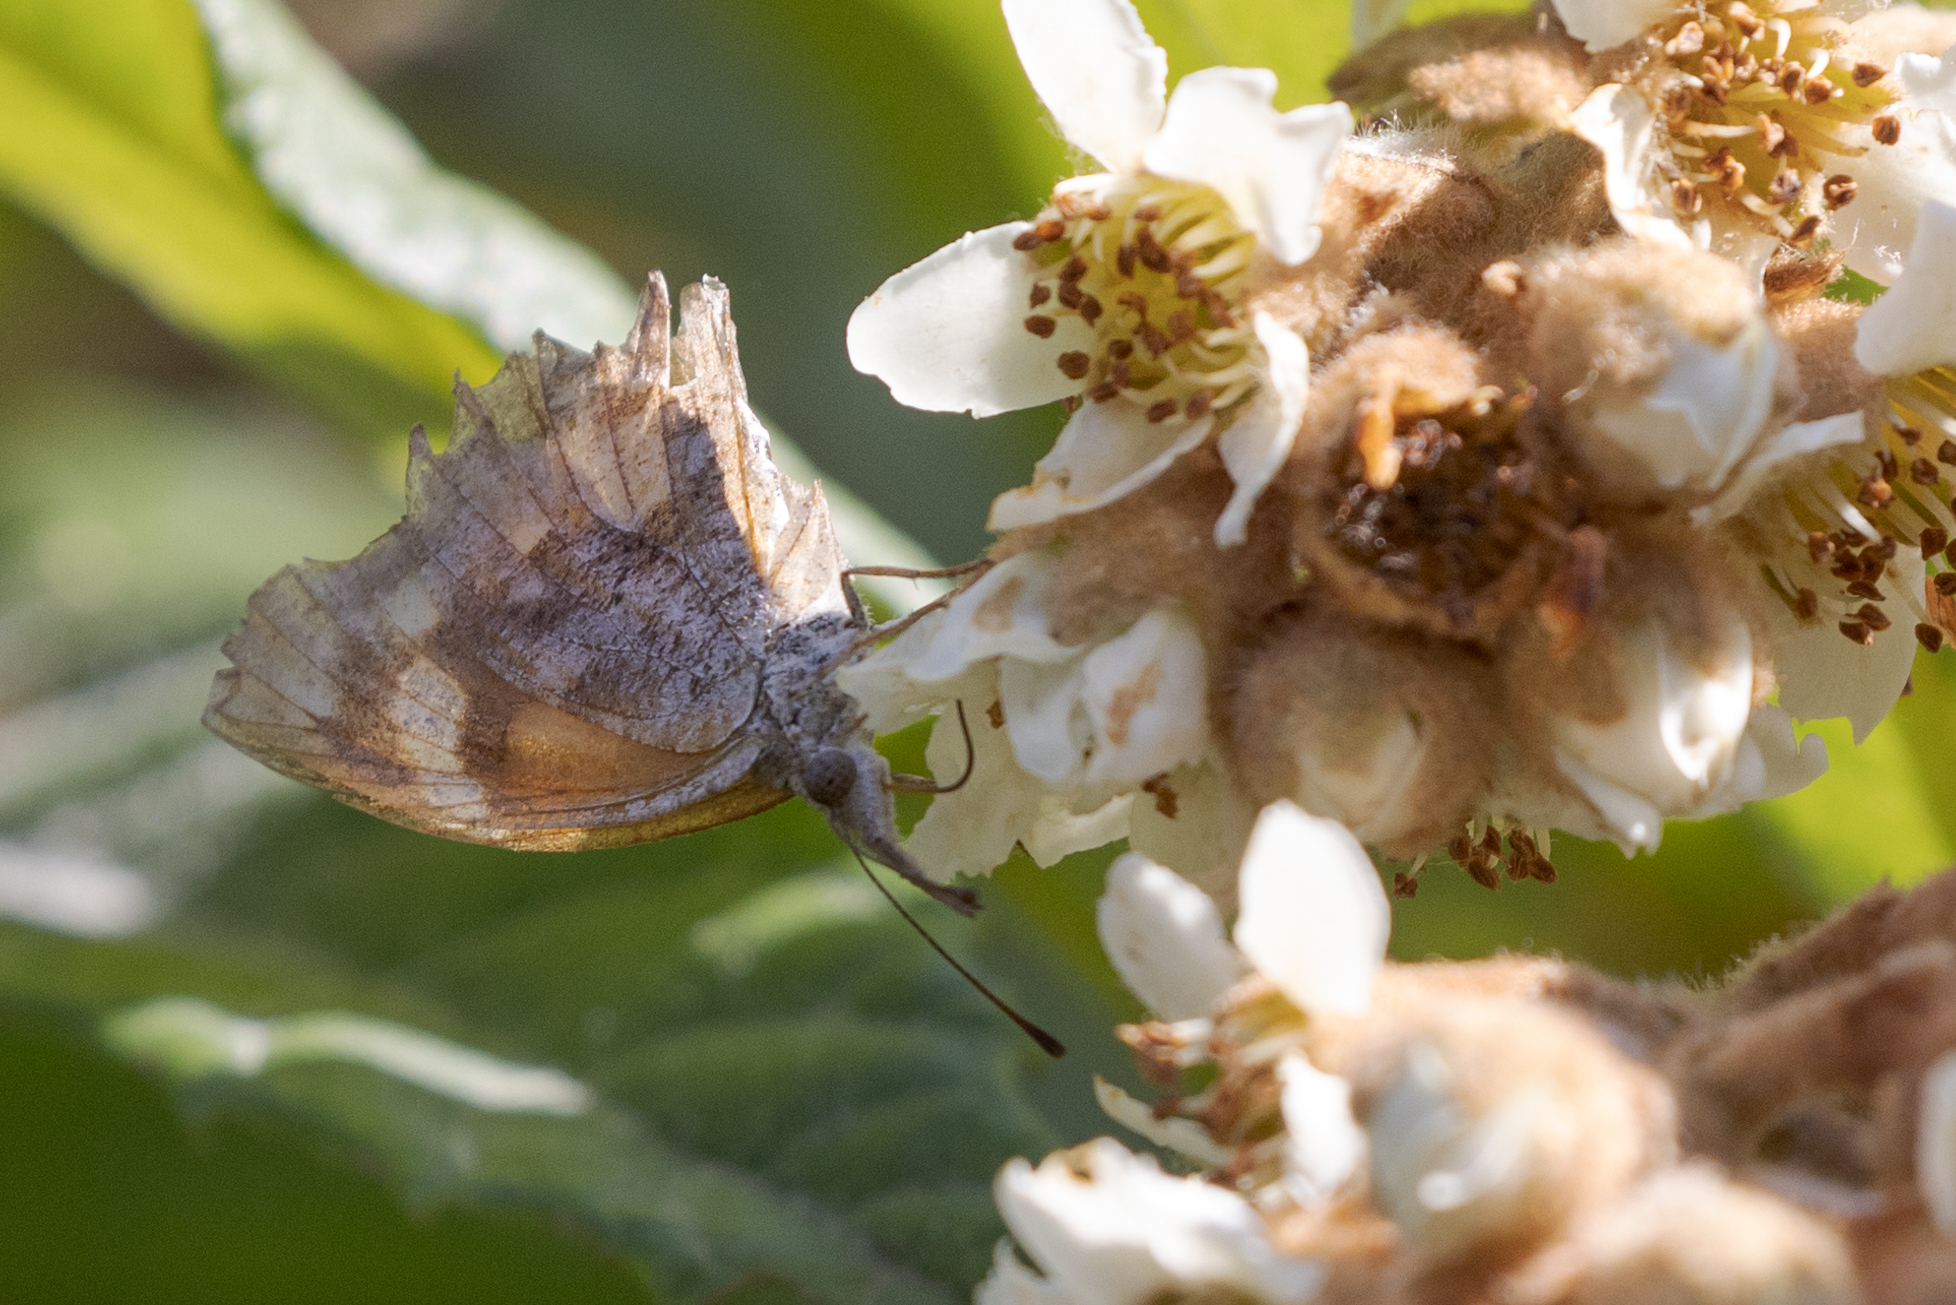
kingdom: Animalia
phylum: Arthropoda
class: Insecta
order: Lepidoptera
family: Nymphalidae
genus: Libytheana
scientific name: Libytheana carinenta
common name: American snout
